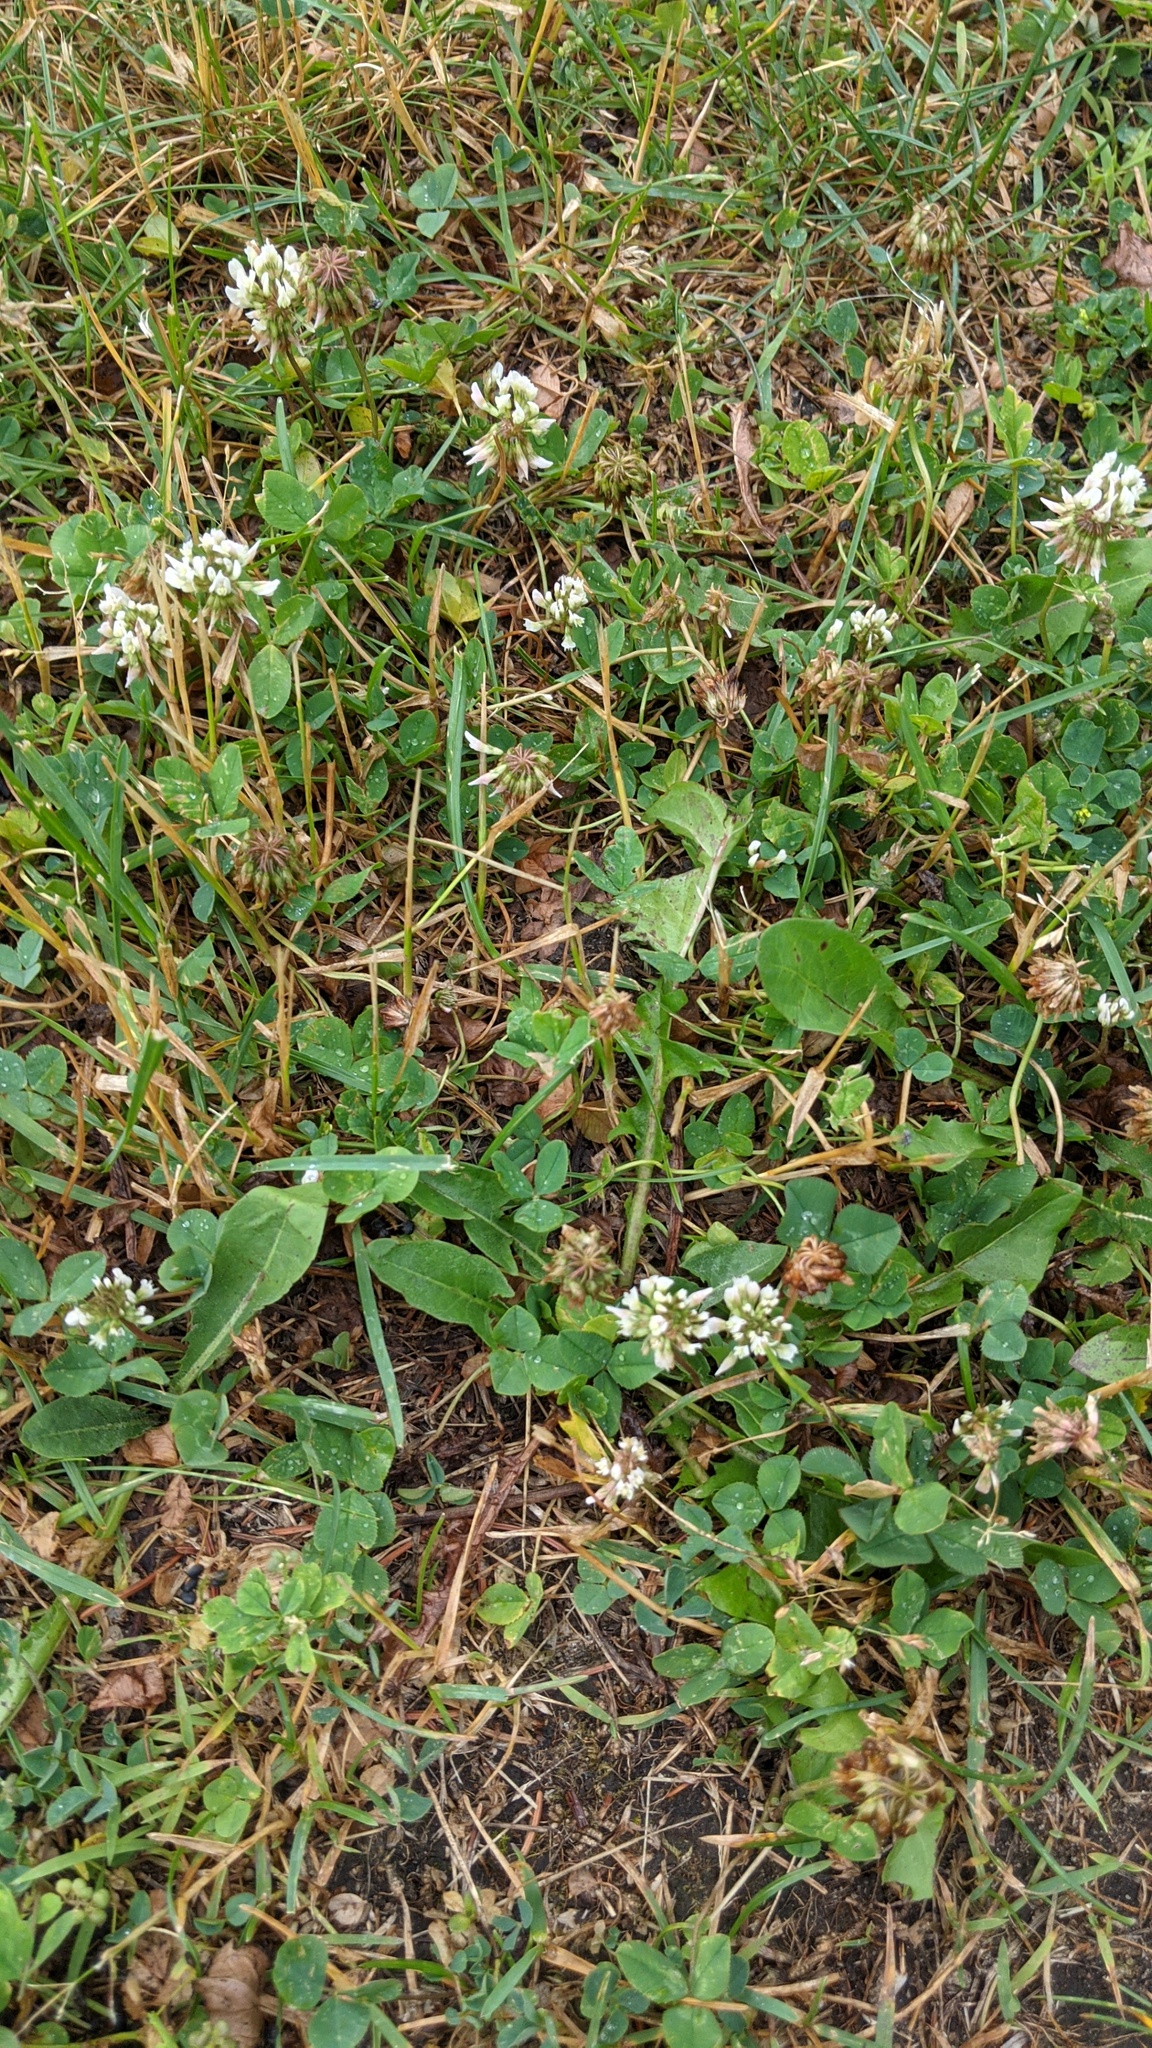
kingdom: Plantae
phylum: Tracheophyta
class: Magnoliopsida
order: Fabales
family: Fabaceae
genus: Trifolium
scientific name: Trifolium repens
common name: White clover
